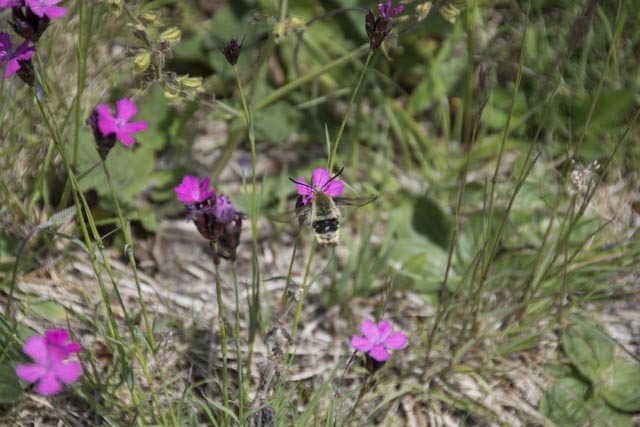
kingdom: Animalia
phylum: Arthropoda
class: Insecta
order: Lepidoptera
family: Sphingidae
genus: Hemaris
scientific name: Hemaris fuciformis
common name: Broad-bordered bee hawk-moth
